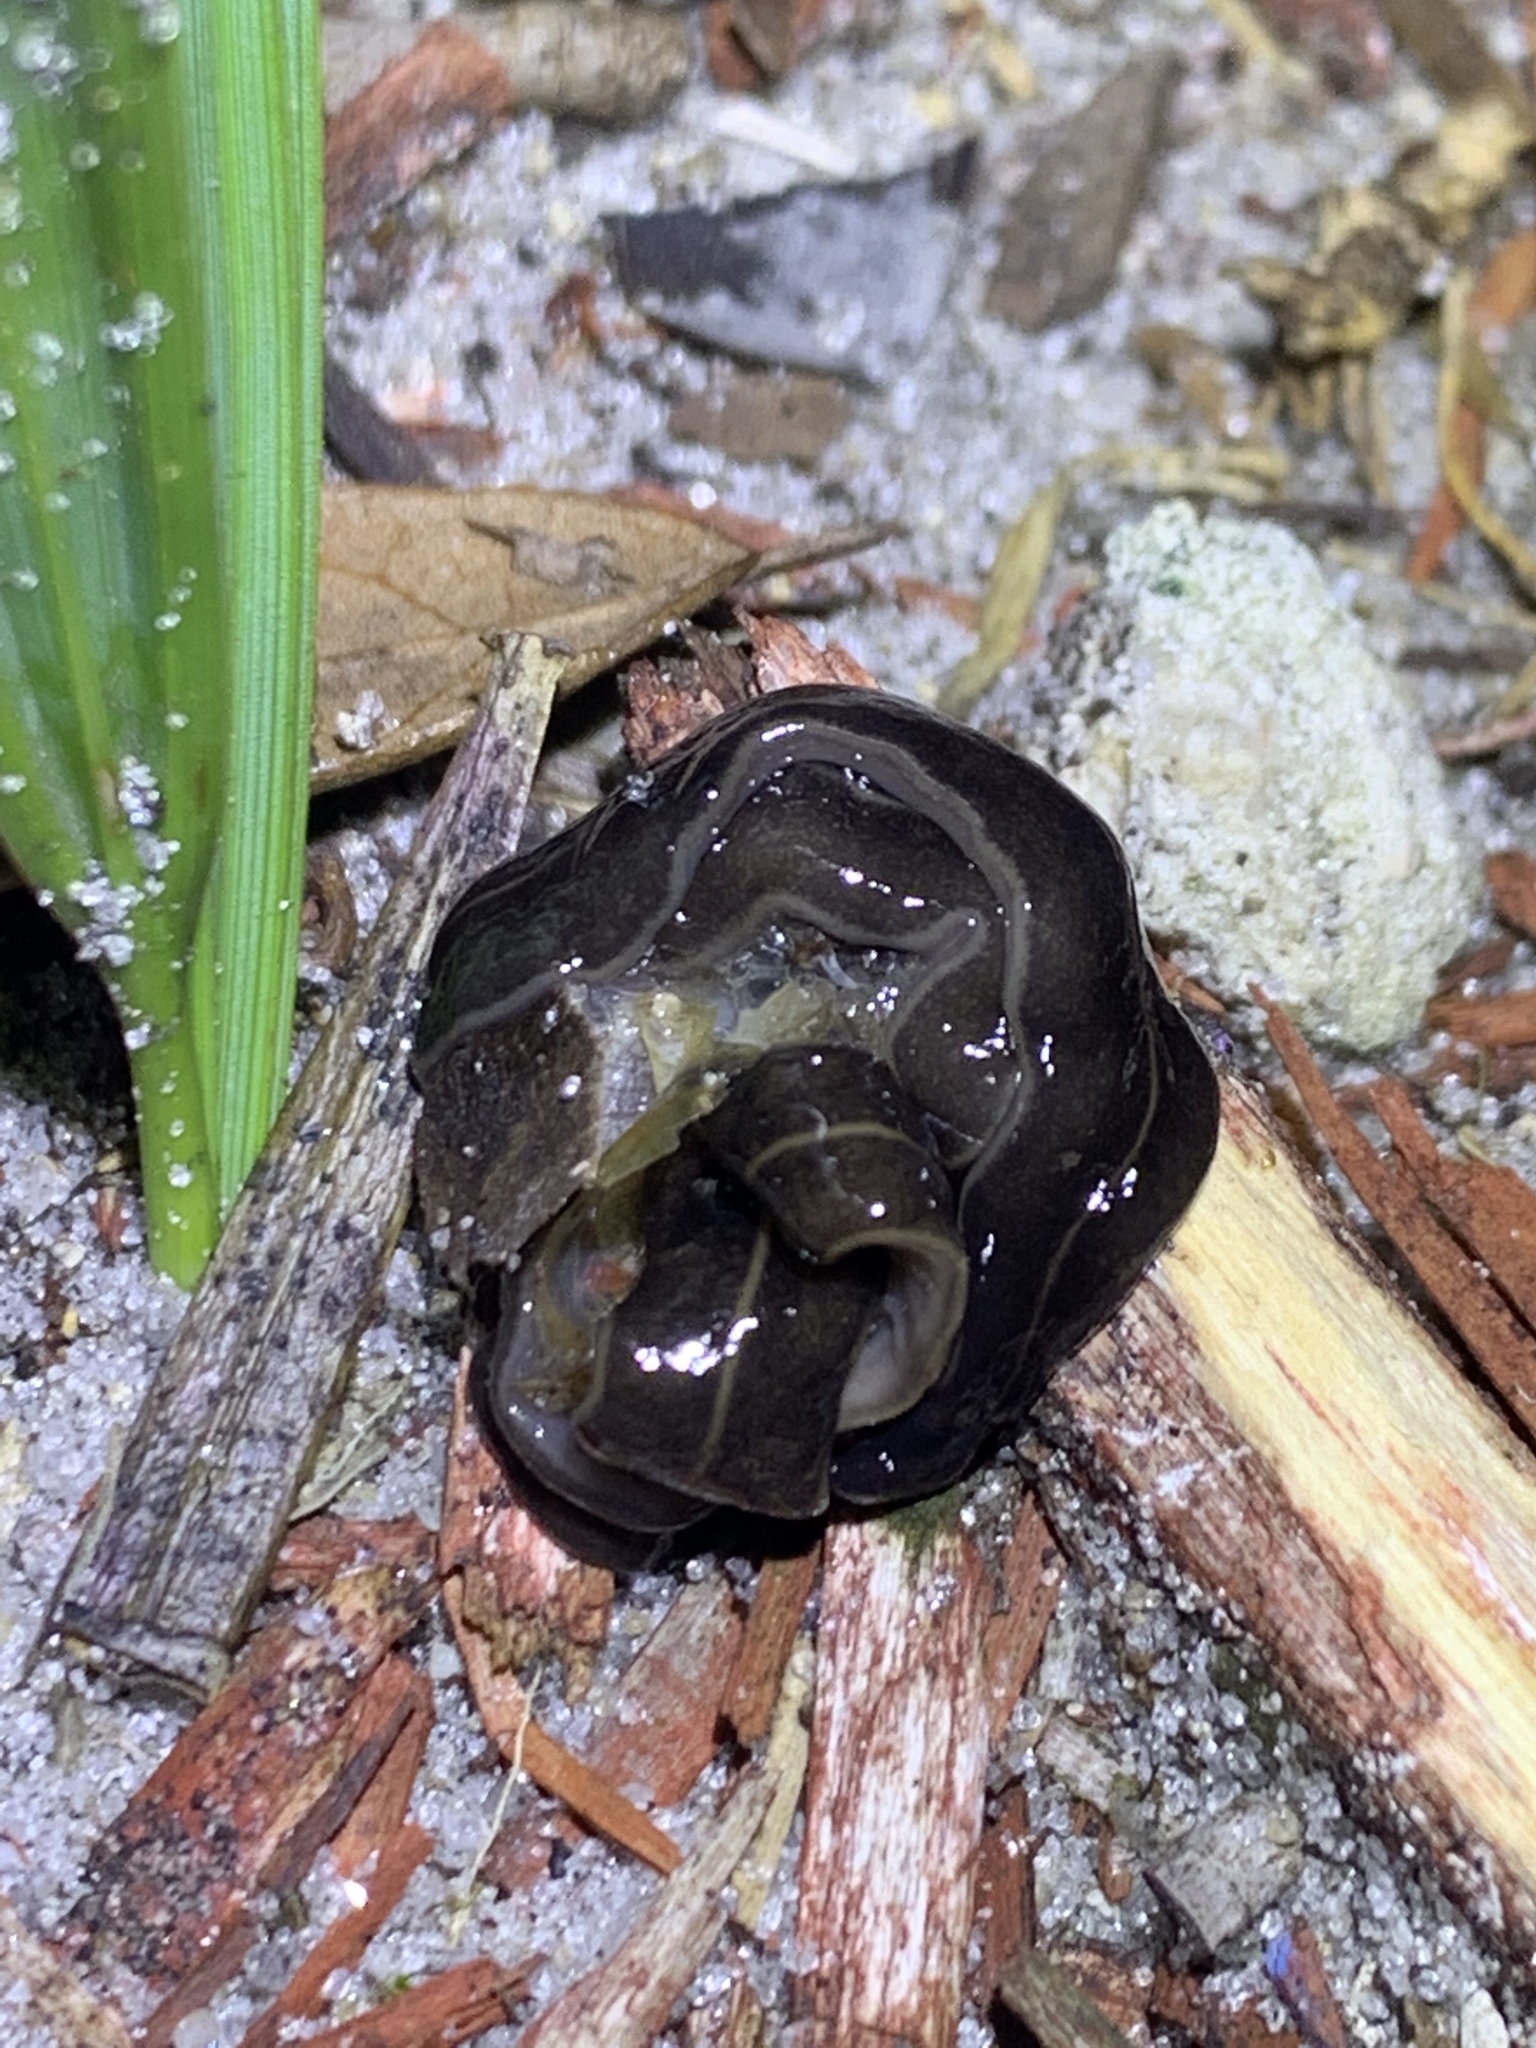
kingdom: Animalia
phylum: Platyhelminthes
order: Tricladida
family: Geoplanidae
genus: Platydemus
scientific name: Platydemus manokwari
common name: New guinea flatworm
